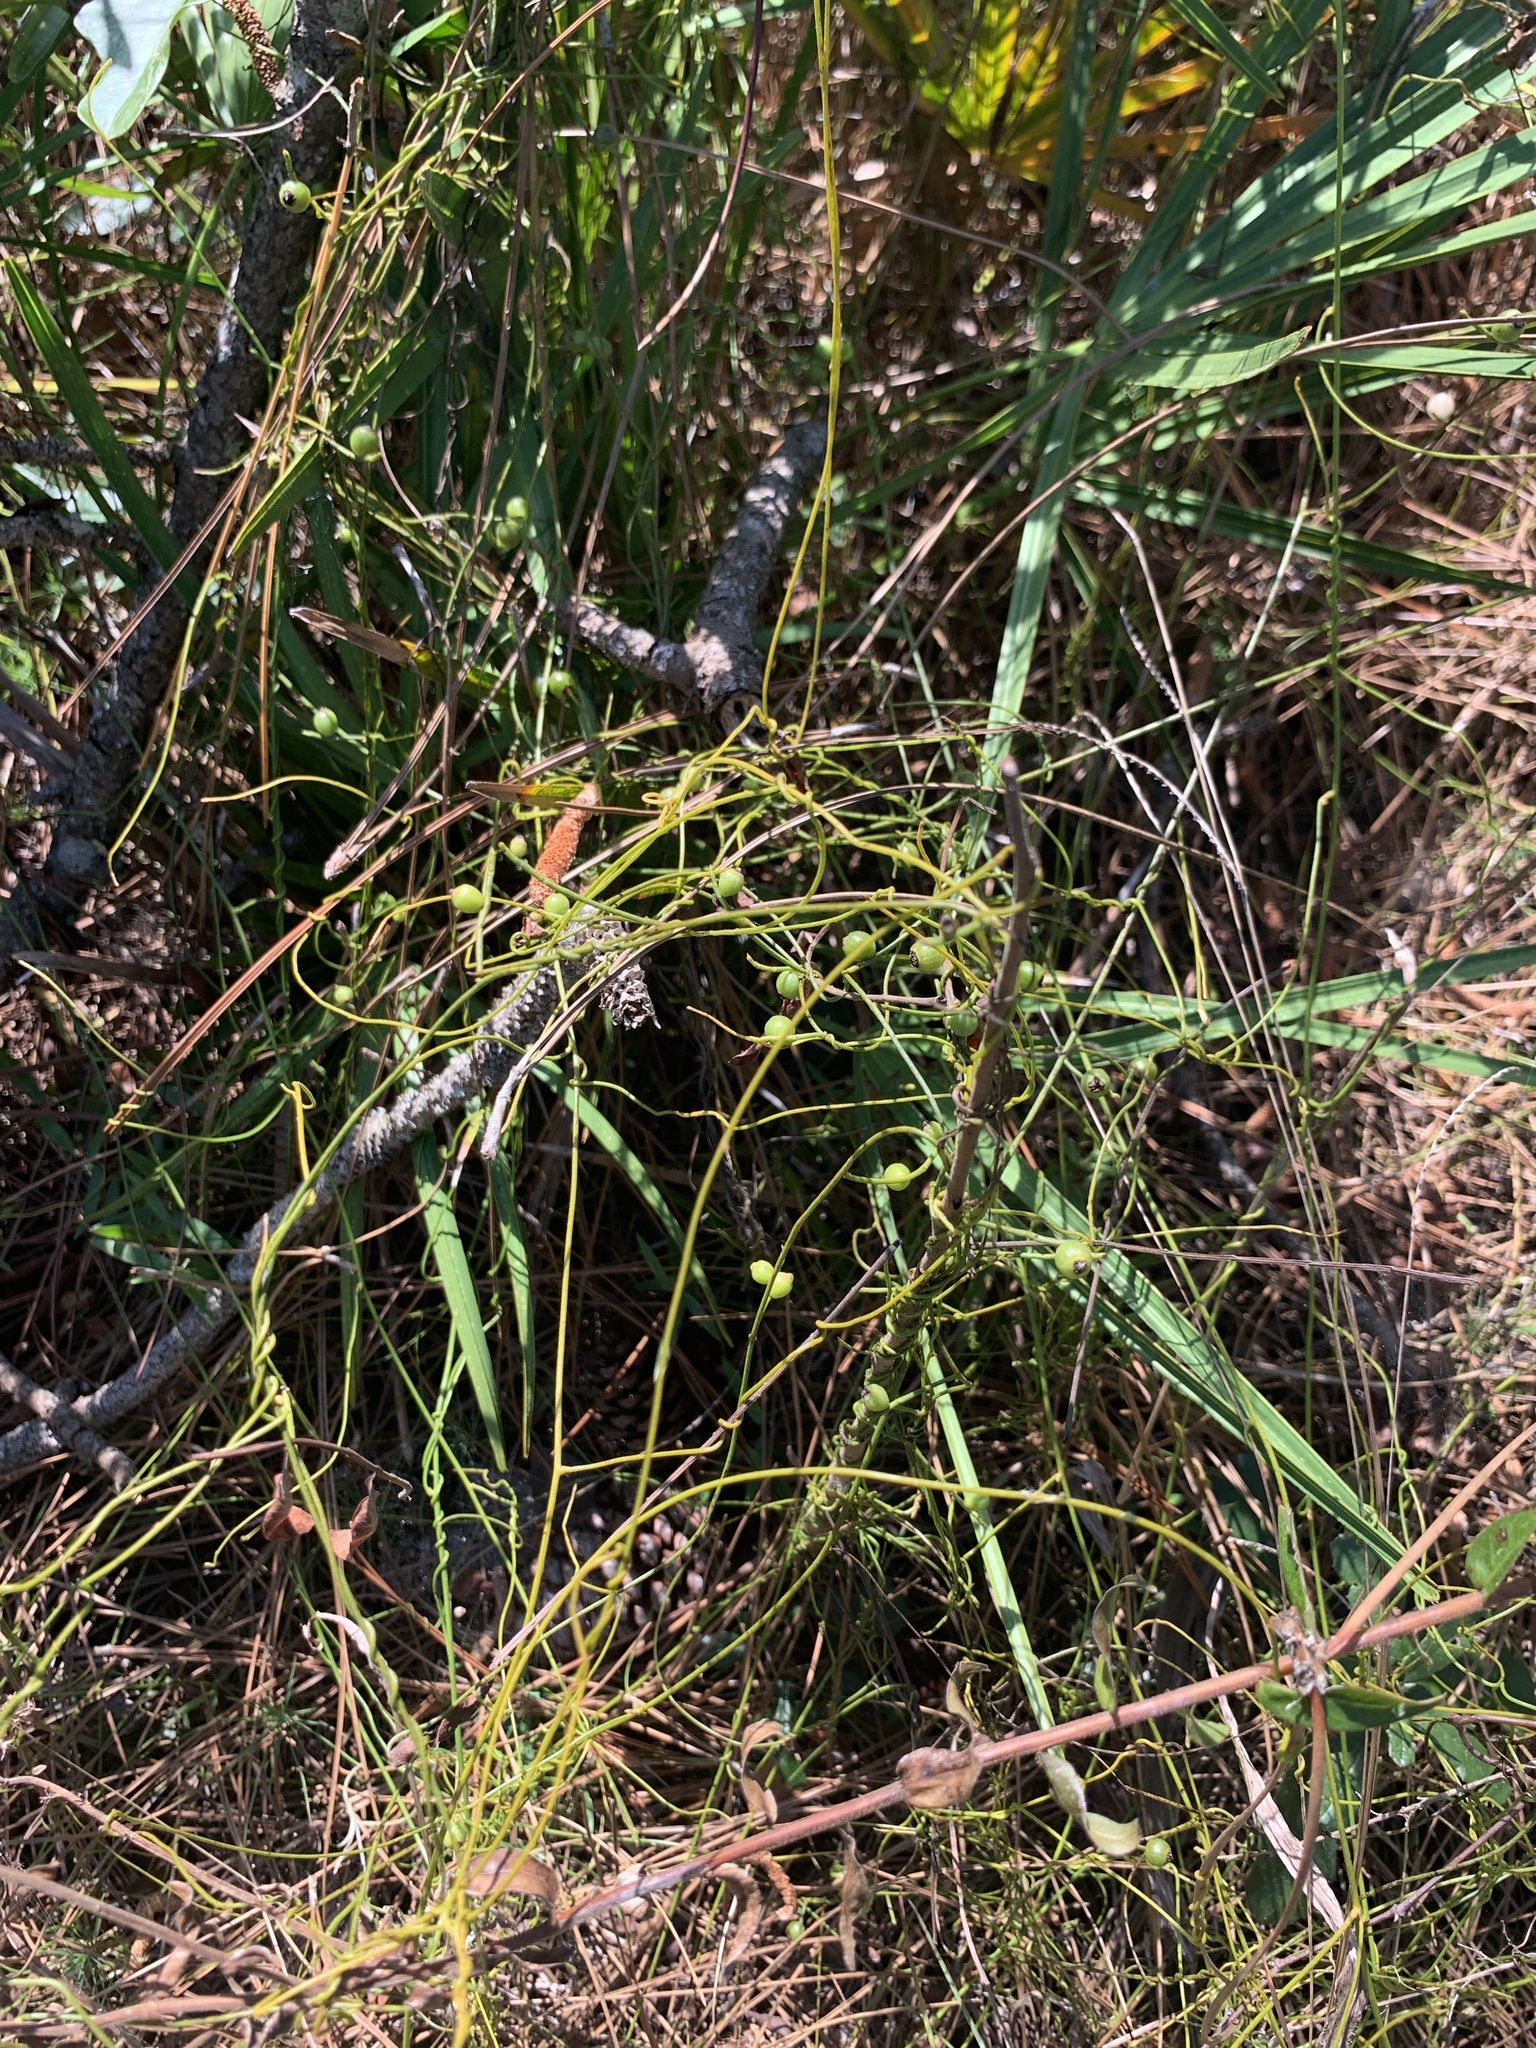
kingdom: Plantae
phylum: Tracheophyta
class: Magnoliopsida
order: Laurales
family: Lauraceae
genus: Cassytha
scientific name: Cassytha filiformis
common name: Dodder-laurel
